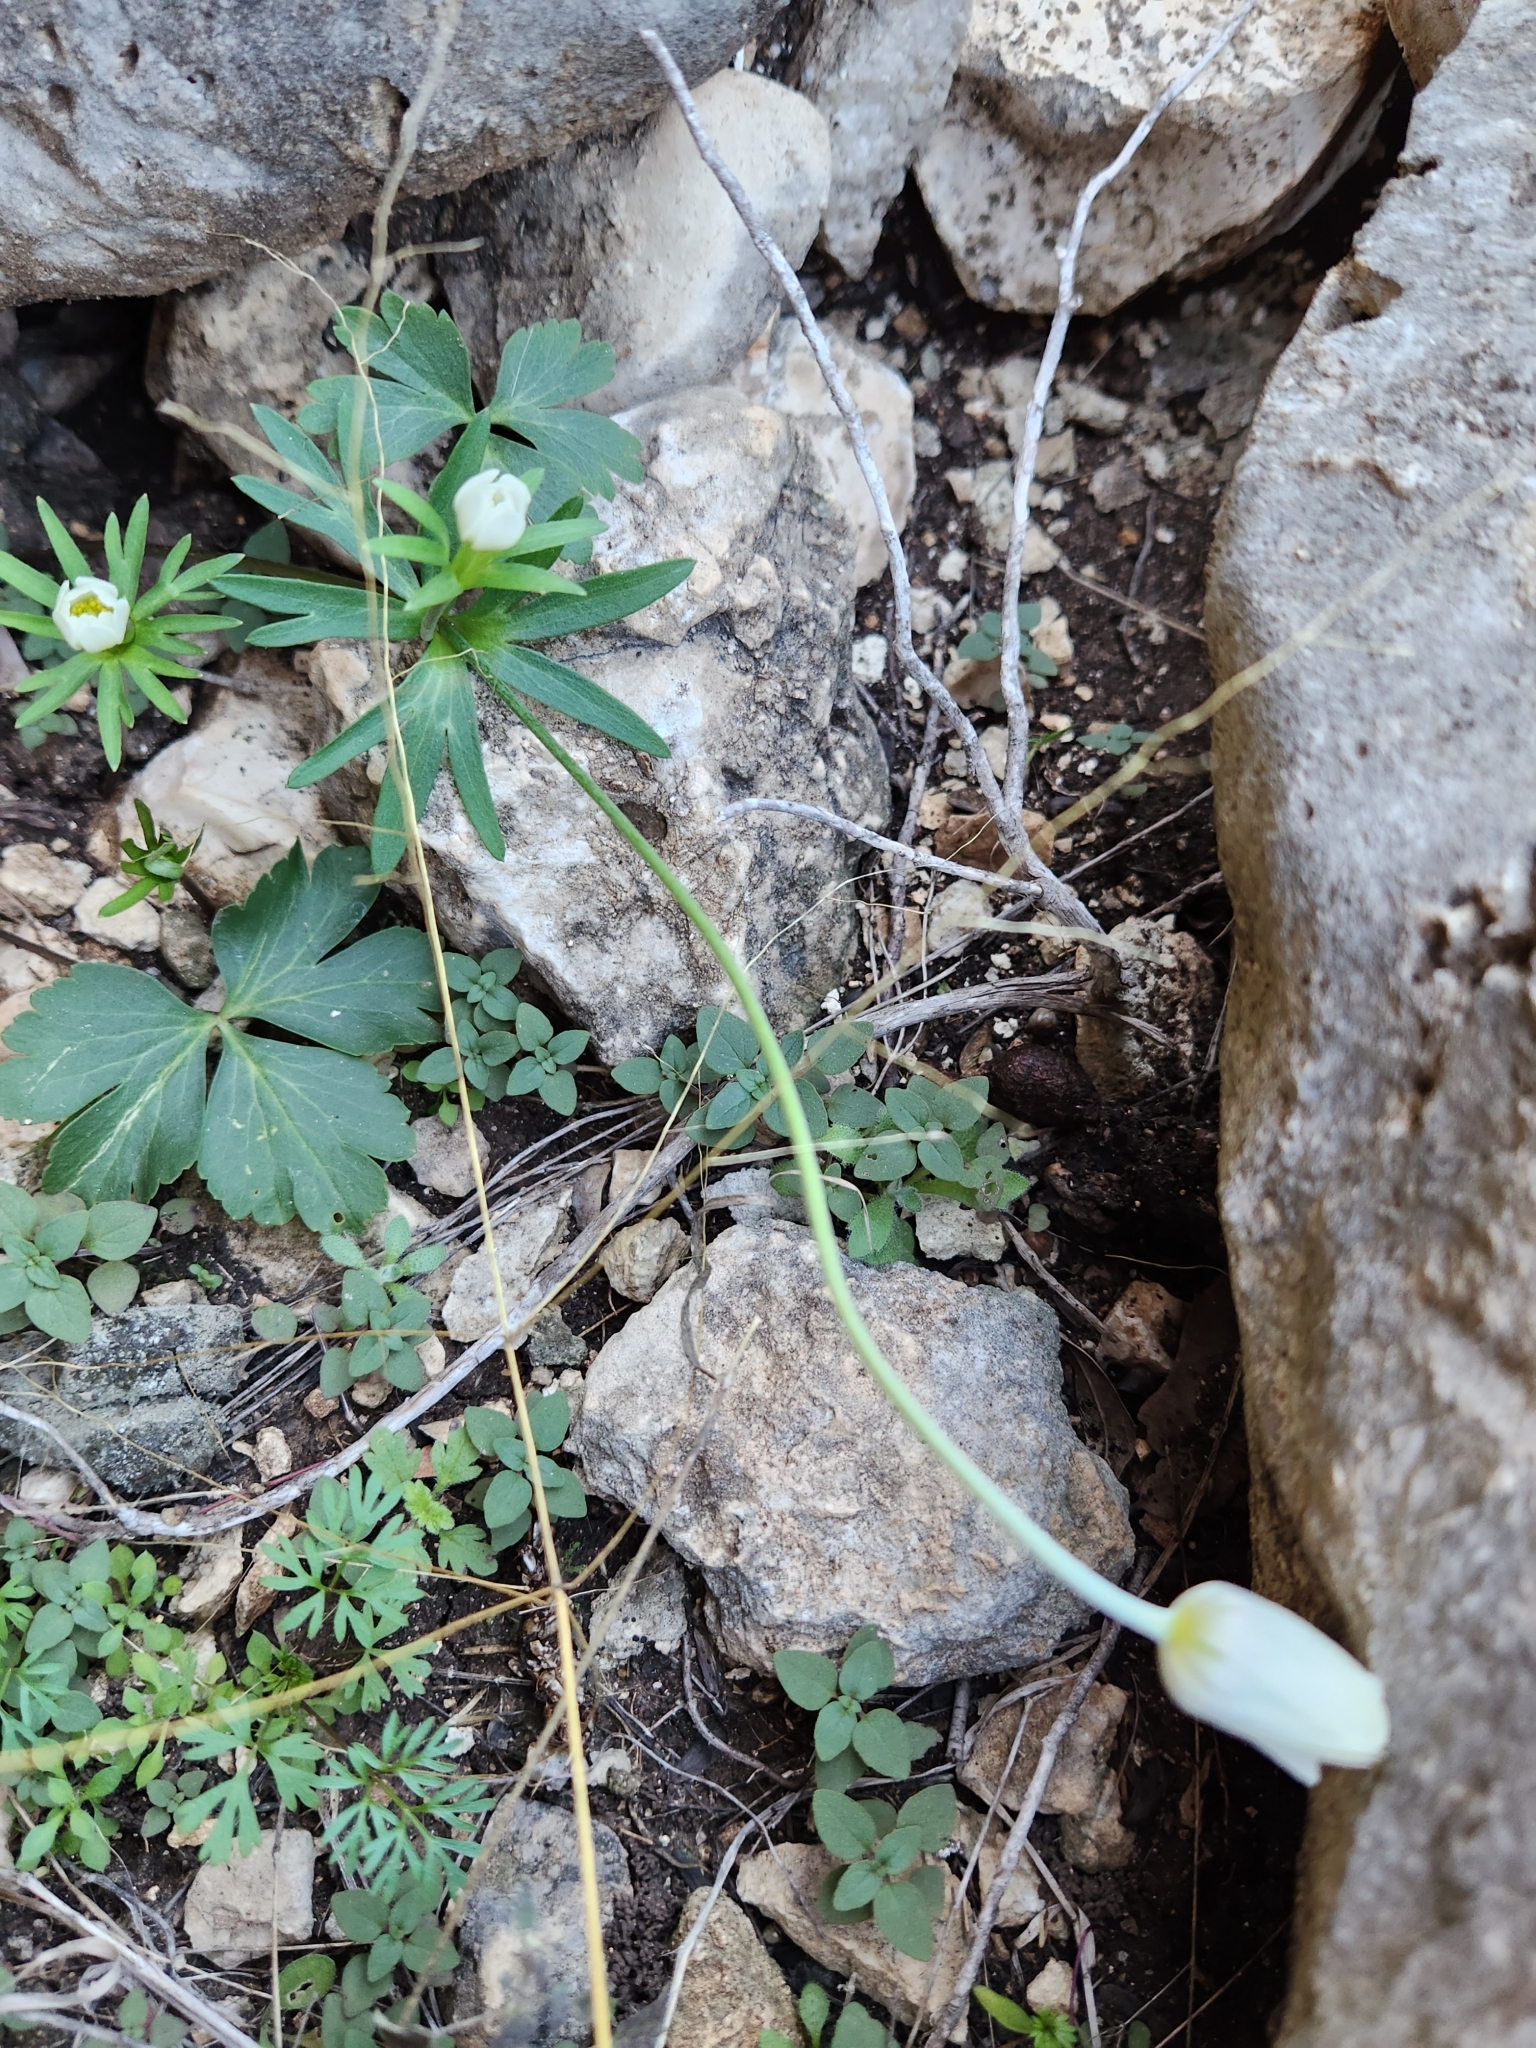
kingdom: Plantae
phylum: Tracheophyta
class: Magnoliopsida
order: Ranunculales
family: Ranunculaceae
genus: Anemone
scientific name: Anemone edwardsiana
